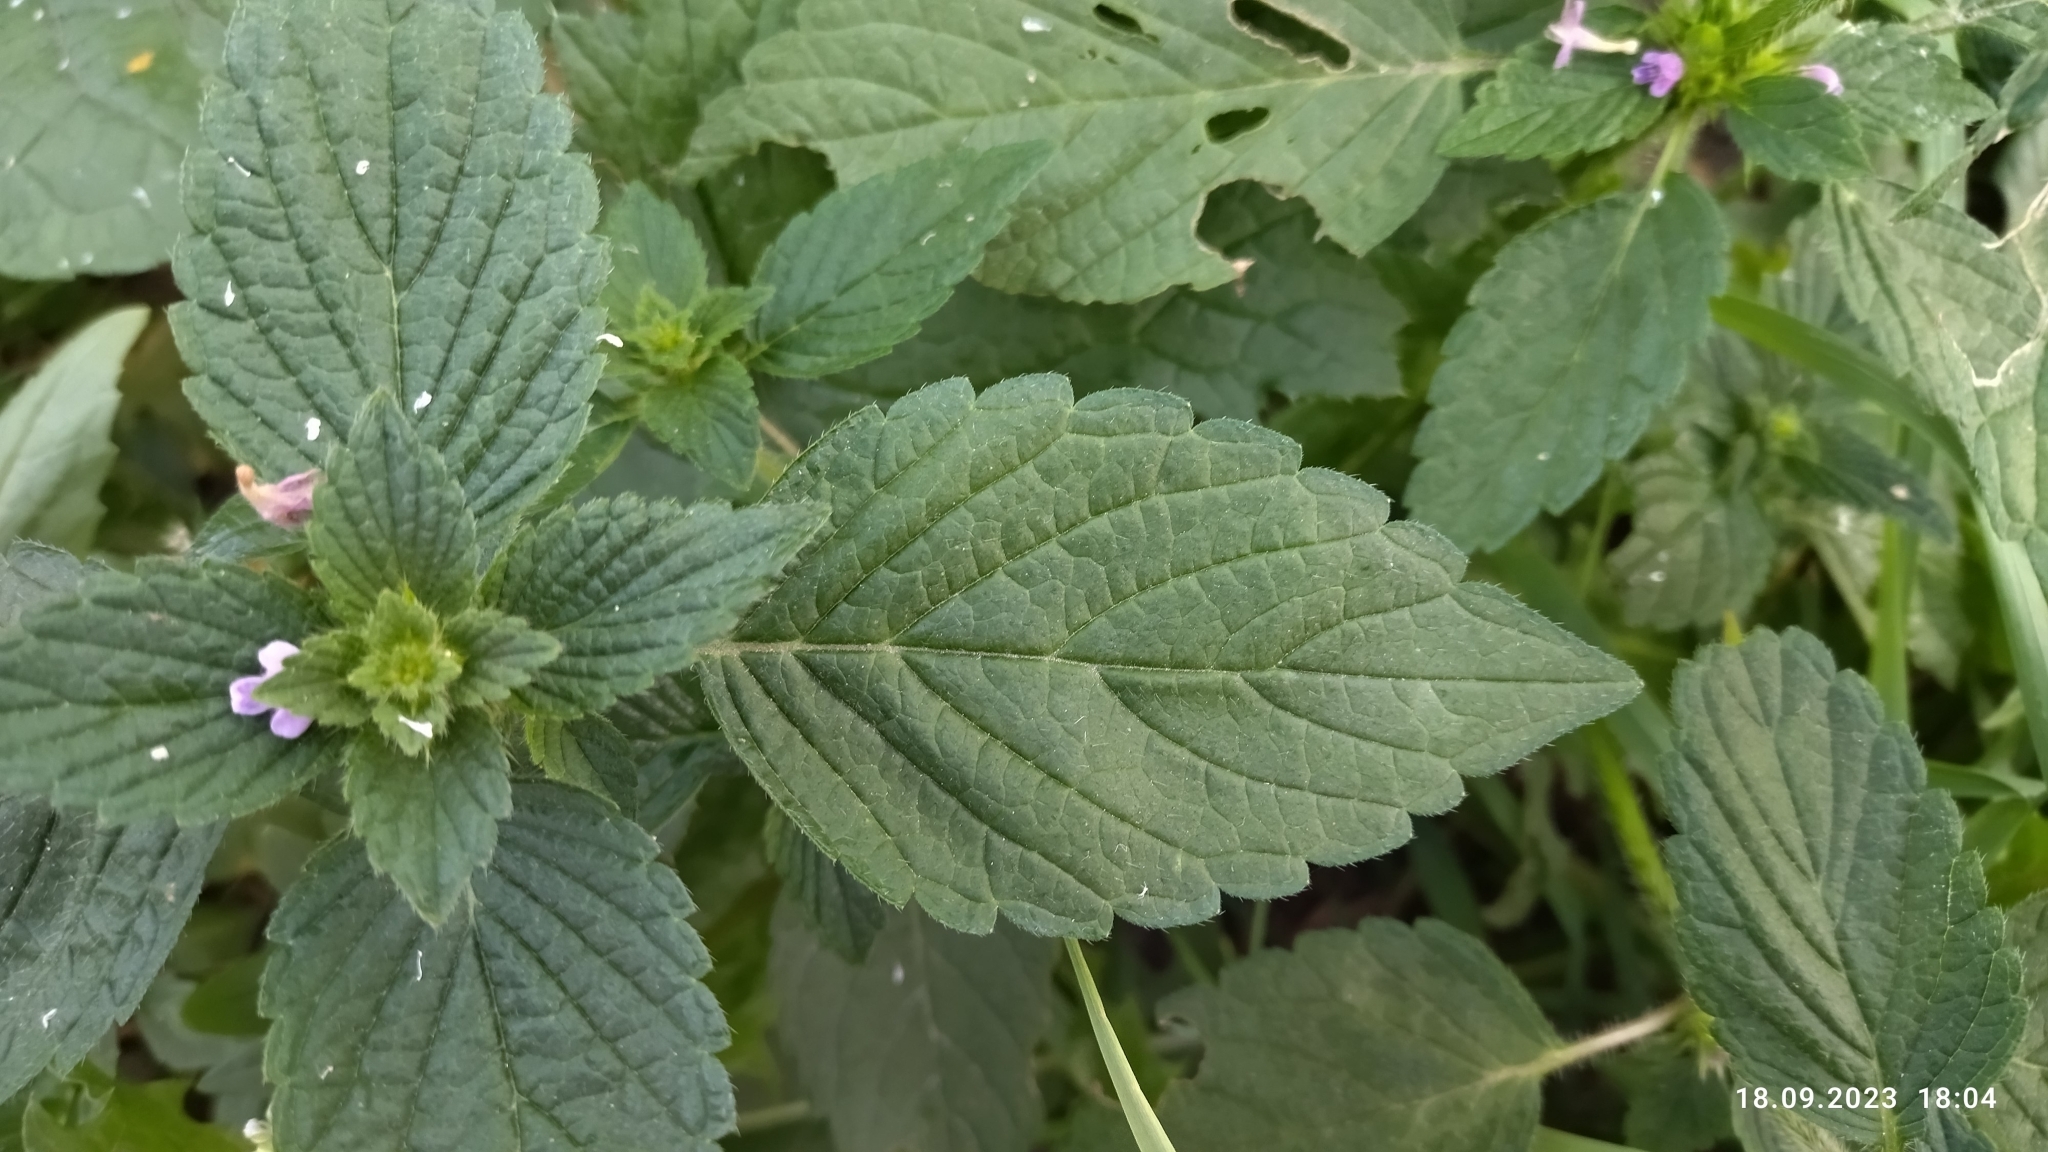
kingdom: Plantae
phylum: Tracheophyta
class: Magnoliopsida
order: Lamiales
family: Lamiaceae
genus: Galeopsis
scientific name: Galeopsis bifida
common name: Bifid hemp-nettle
